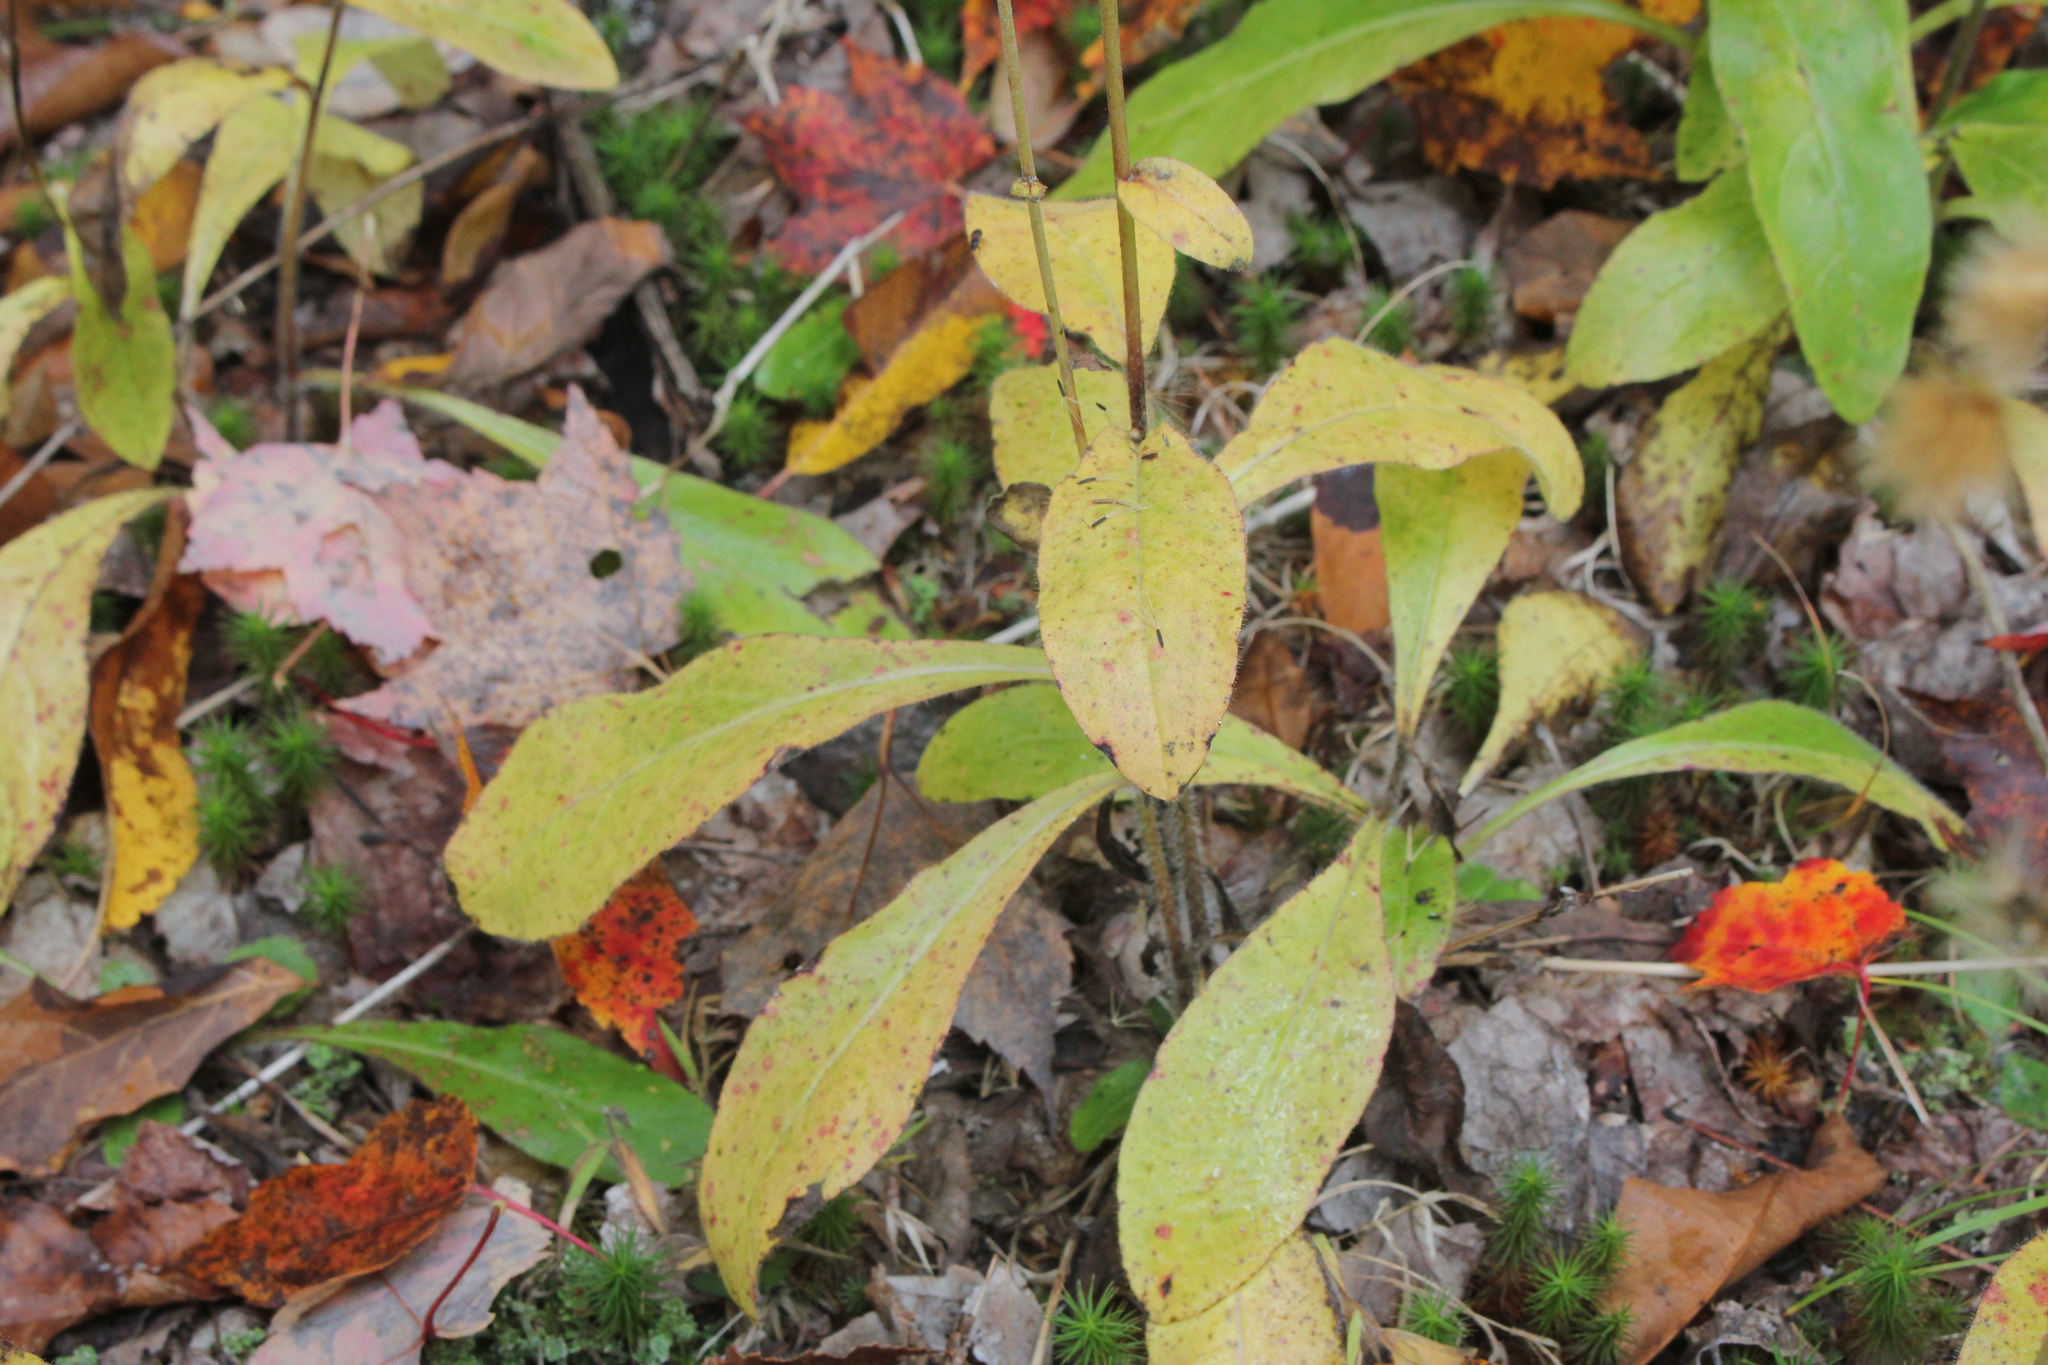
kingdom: Plantae
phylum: Tracheophyta
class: Magnoliopsida
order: Asterales
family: Asteraceae
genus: Hieracium
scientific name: Hieracium scabrum
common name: Rough hawkweed
